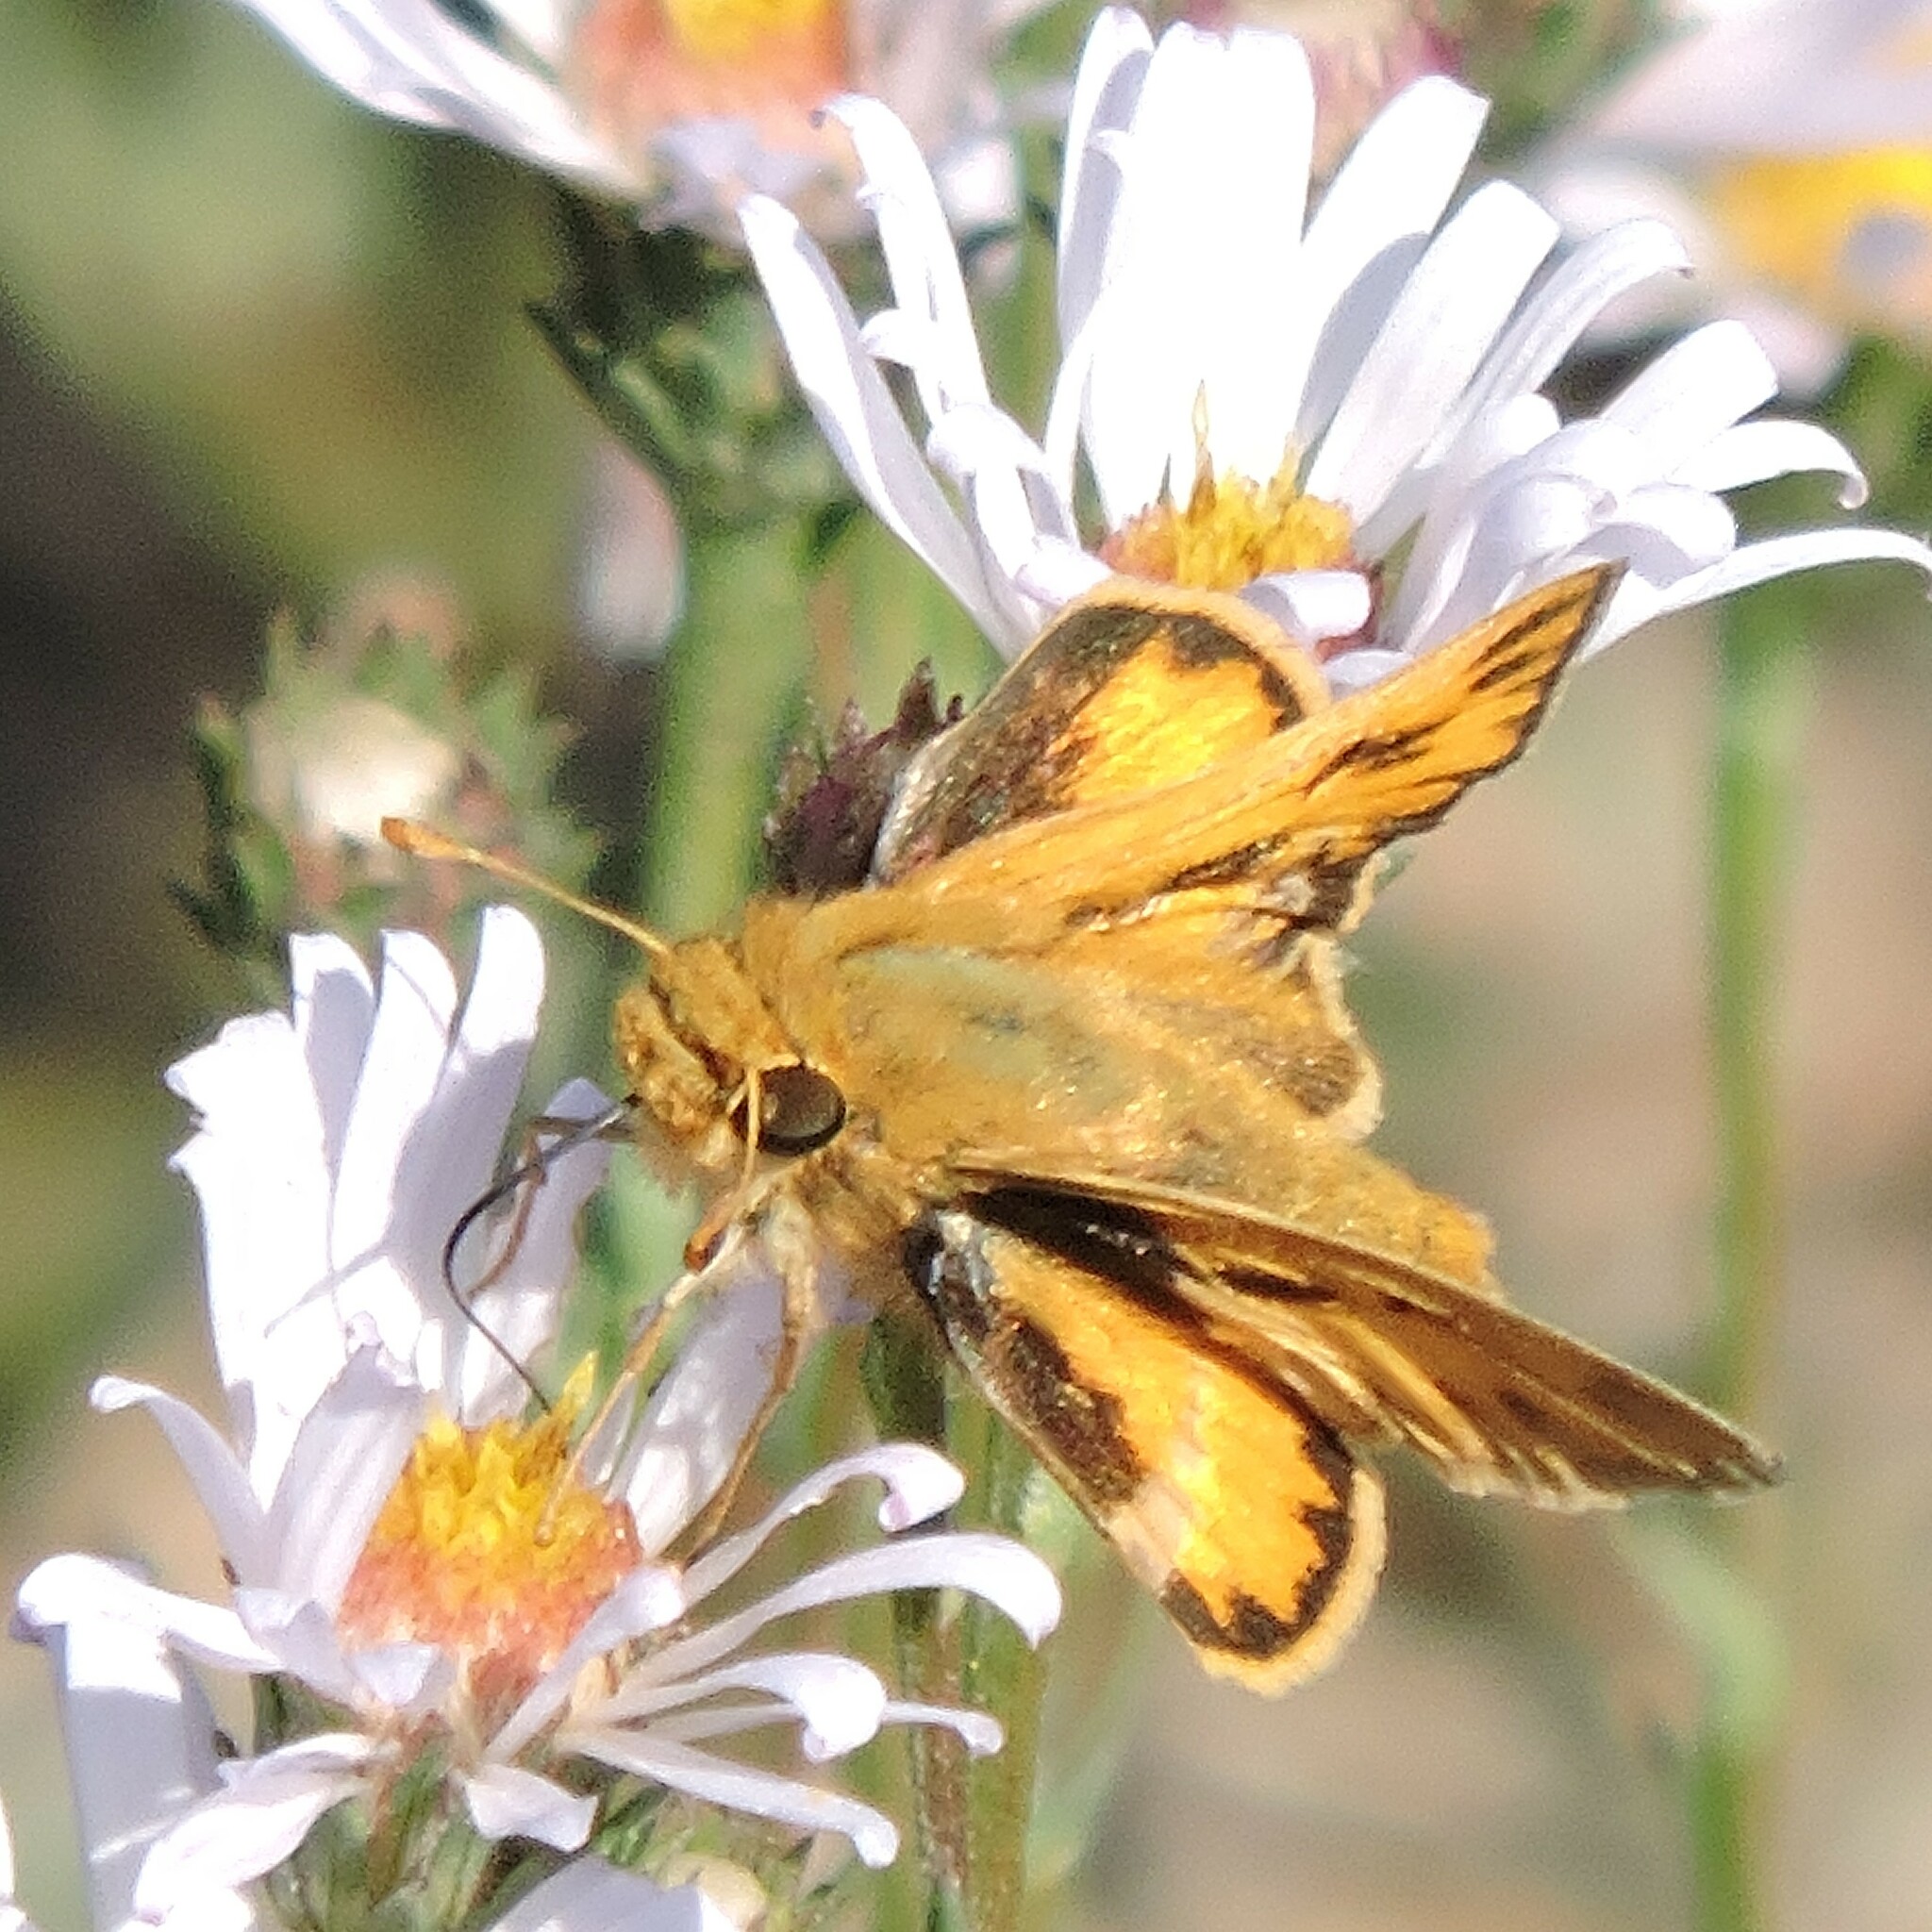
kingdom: Animalia
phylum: Arthropoda
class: Insecta
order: Lepidoptera
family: Hesperiidae
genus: Hylephila
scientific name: Hylephila phyleus
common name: Fiery skipper
